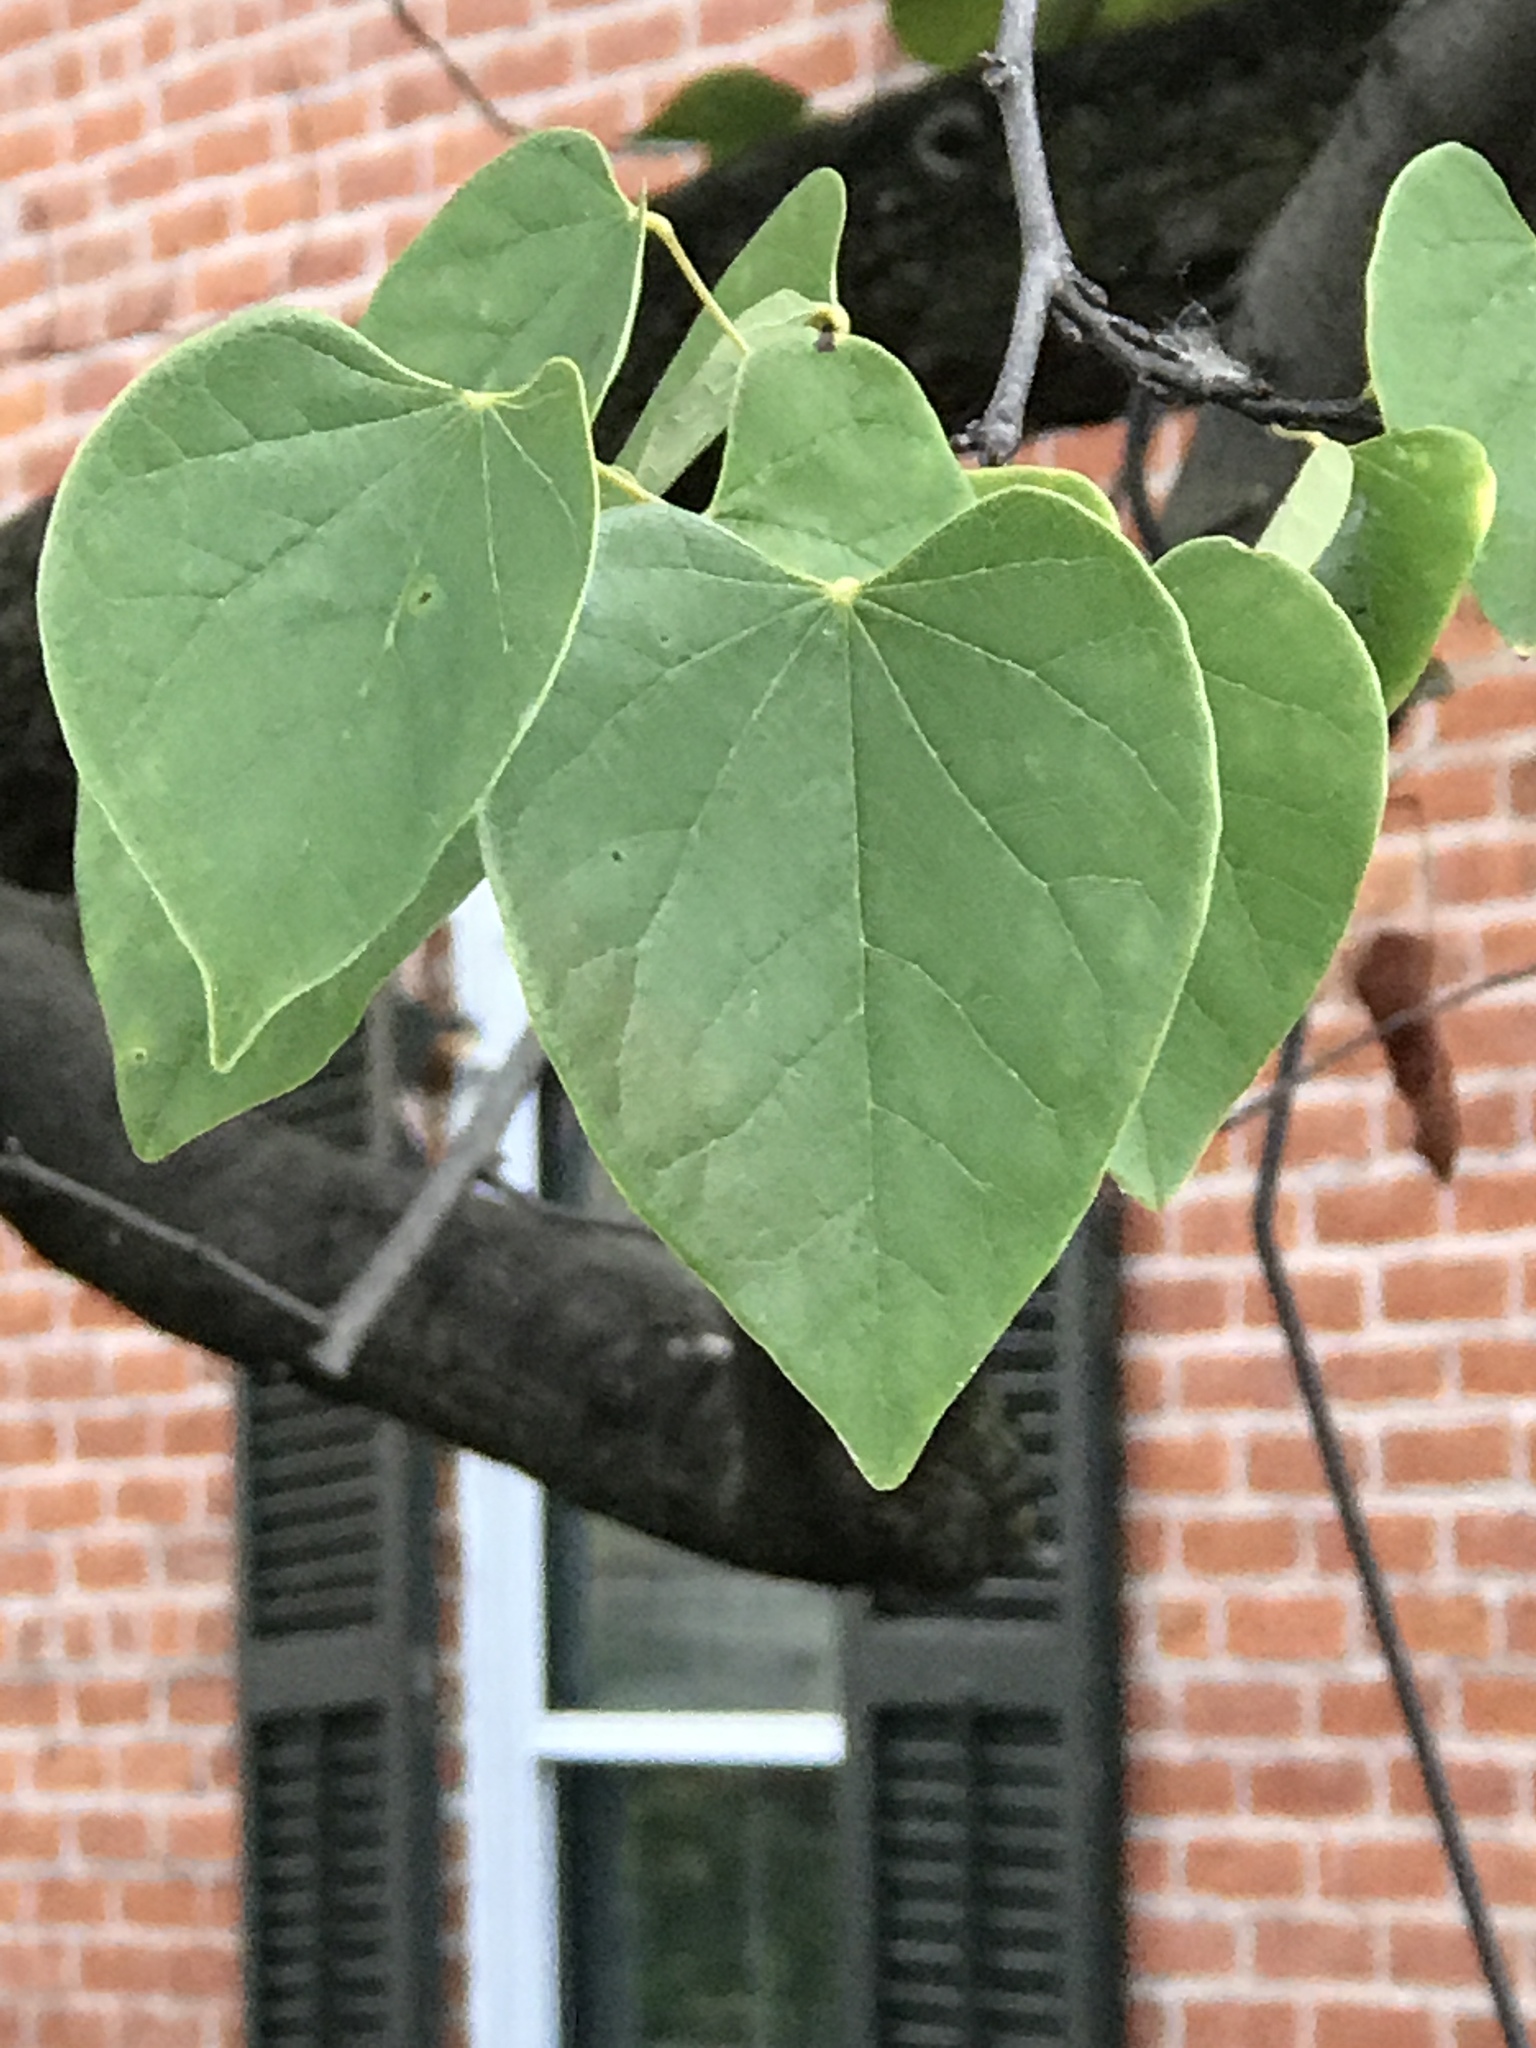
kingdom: Plantae
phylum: Tracheophyta
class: Magnoliopsida
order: Fabales
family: Fabaceae
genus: Cercis
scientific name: Cercis canadensis
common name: Eastern redbud
